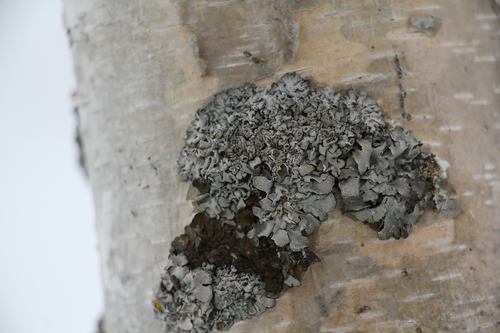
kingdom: Fungi
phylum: Ascomycota
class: Lecanoromycetes
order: Caliciales
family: Physciaceae
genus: Physcia
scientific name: Physcia
